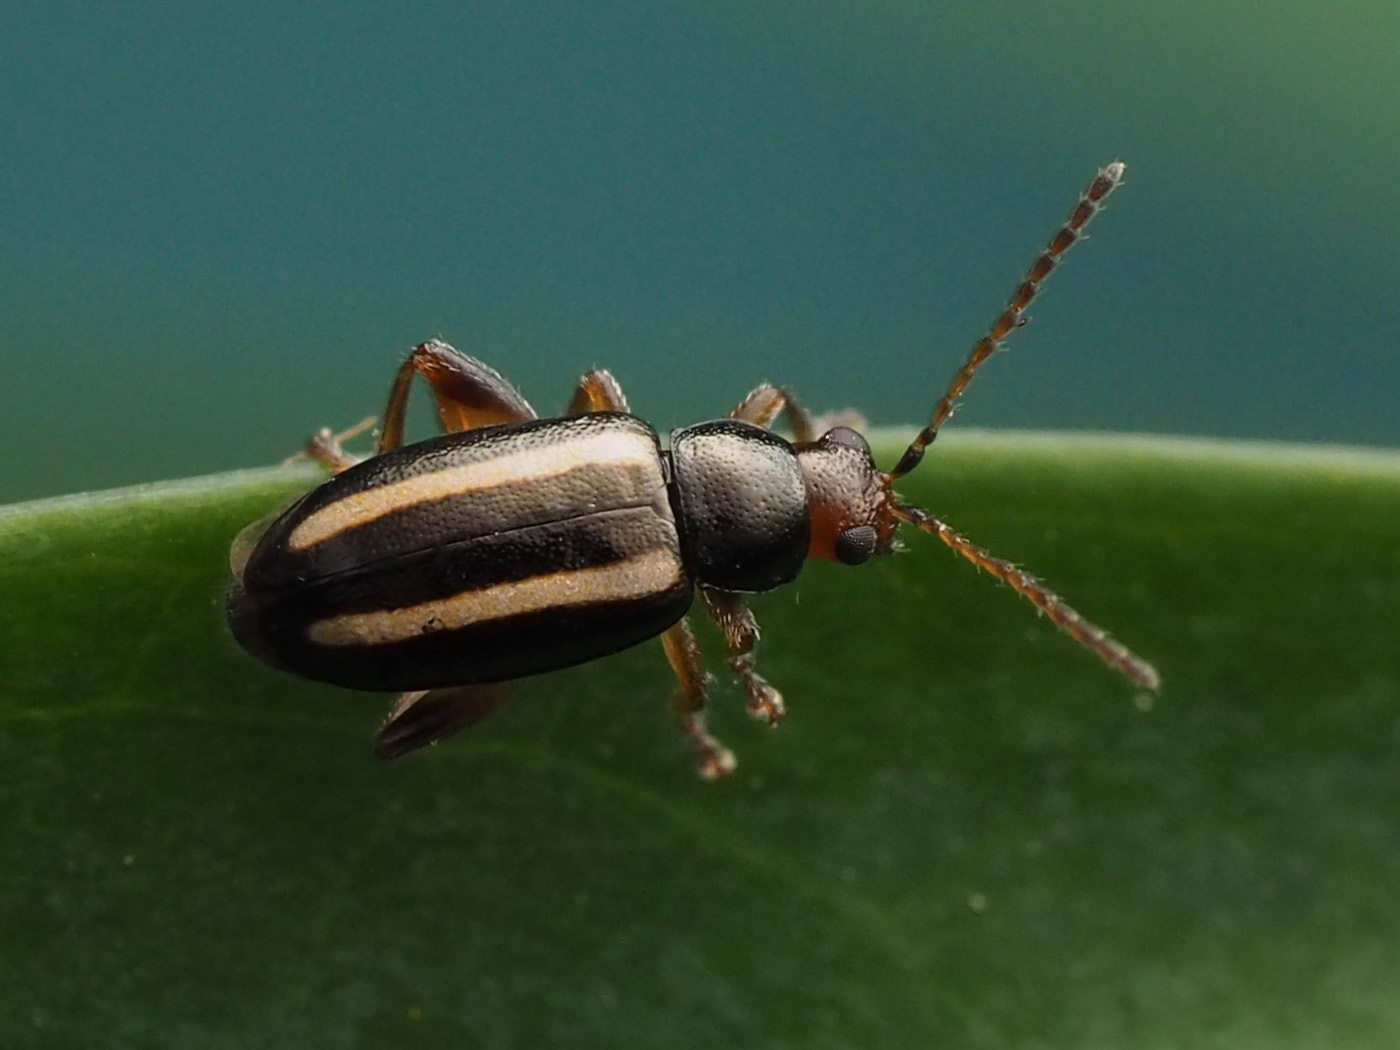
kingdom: Animalia
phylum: Arthropoda
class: Insecta
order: Coleoptera
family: Chrysomelidae
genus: Systena
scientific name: Systena elongata
